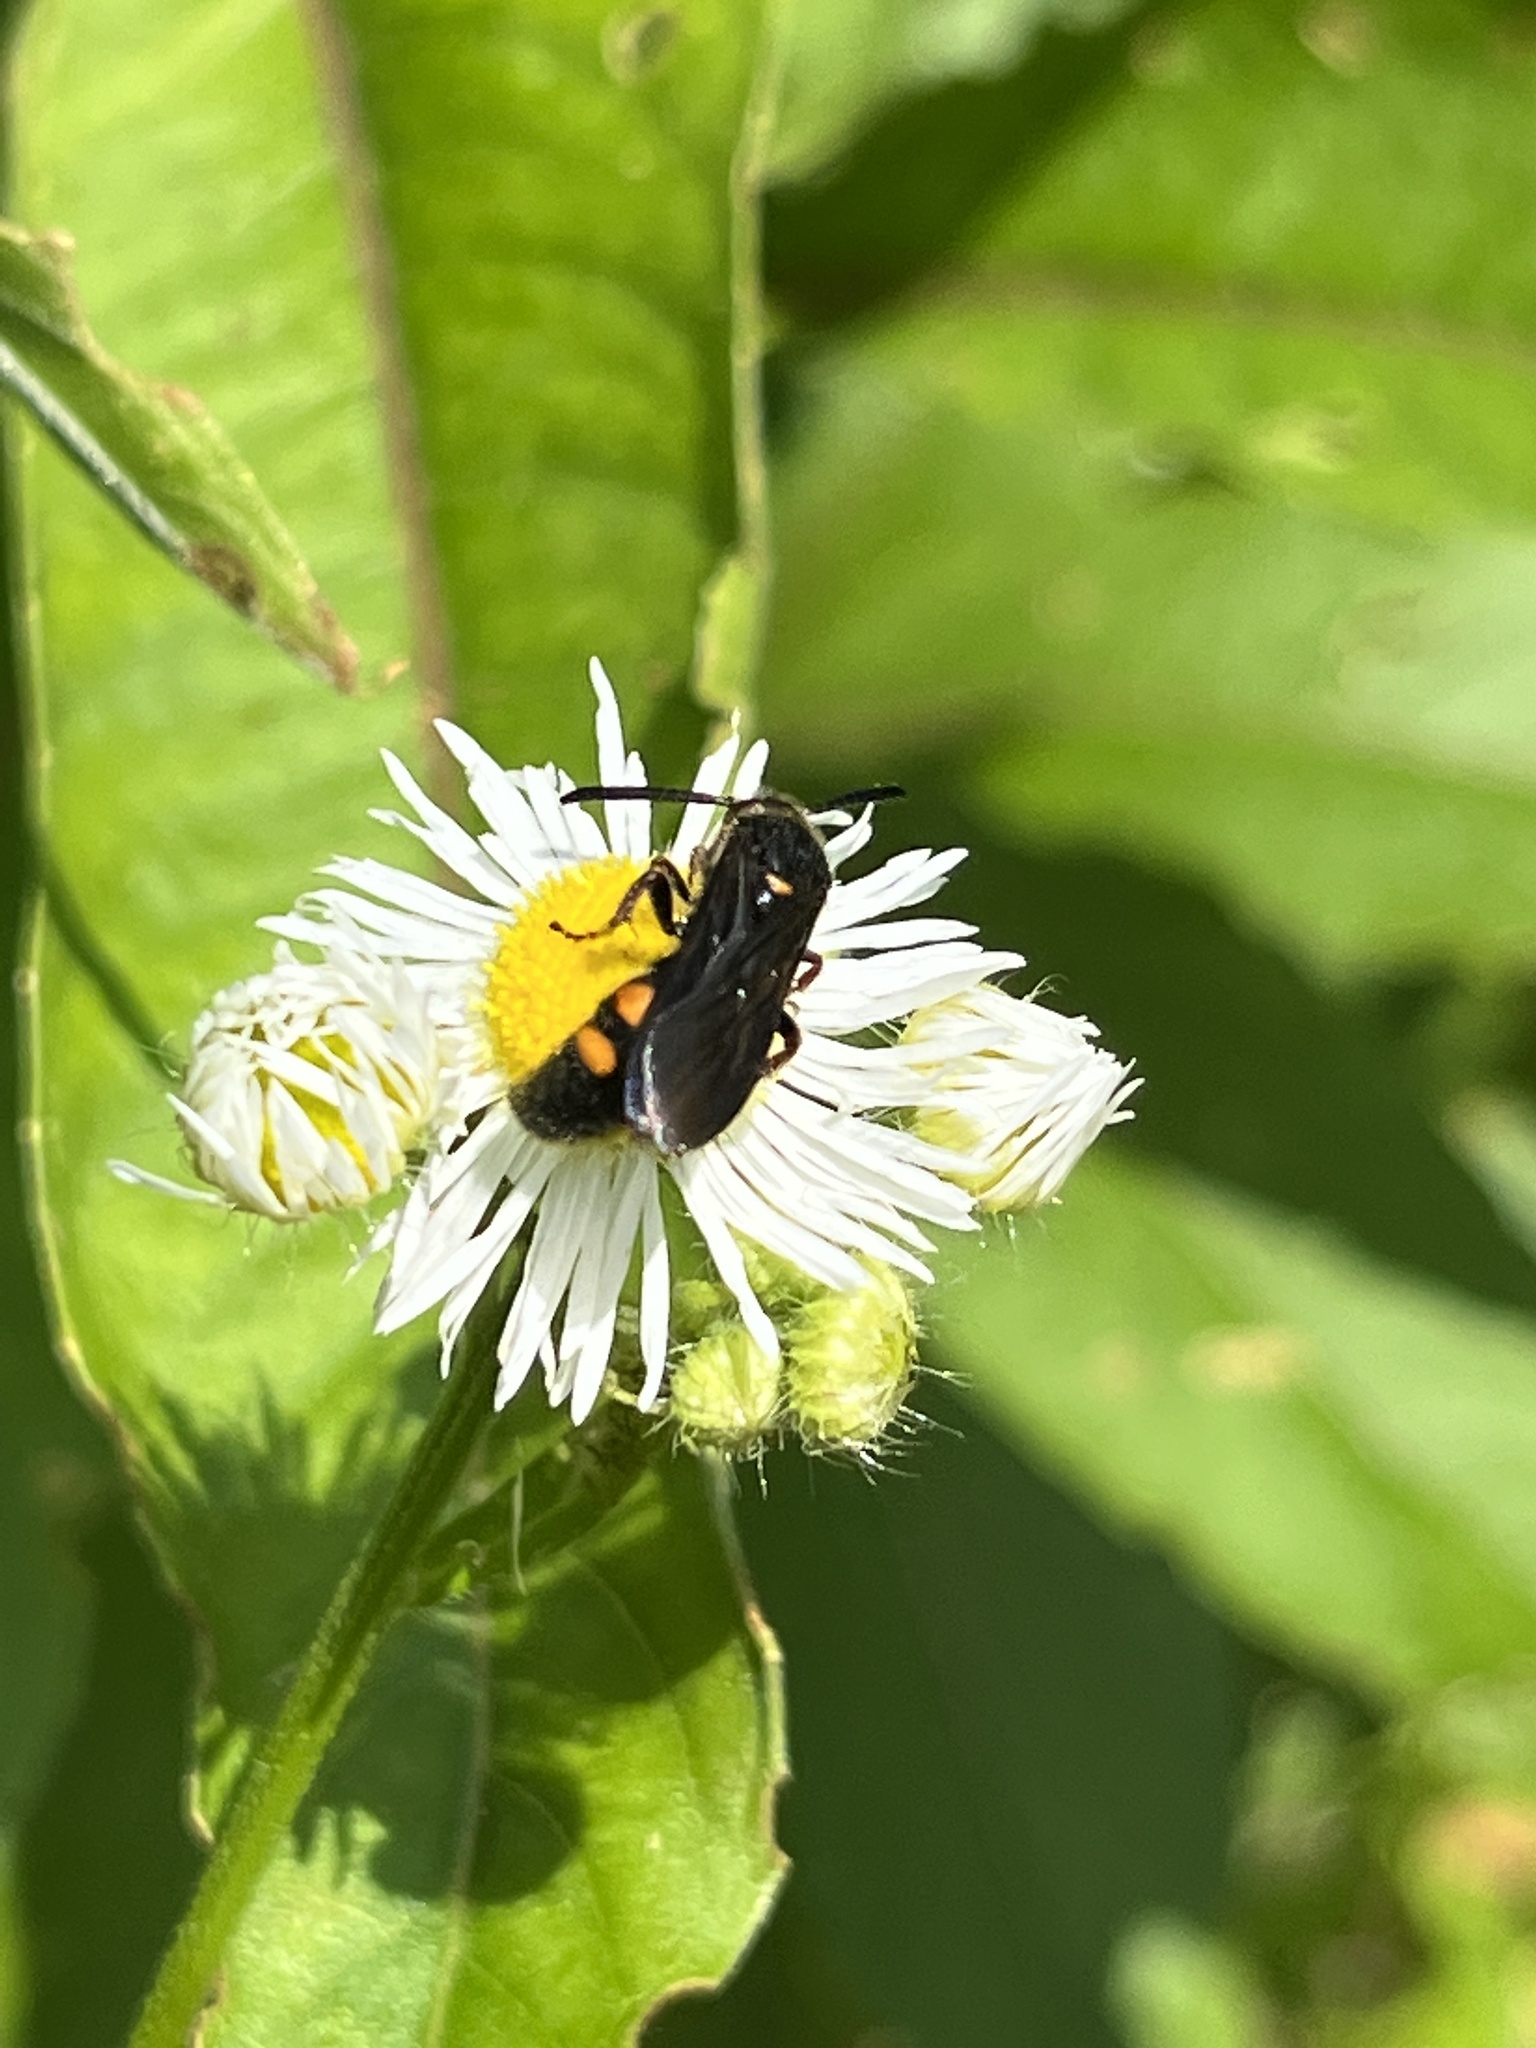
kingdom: Animalia
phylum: Arthropoda
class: Insecta
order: Hymenoptera
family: Scoliidae
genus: Scolia
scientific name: Scolia nobilitata
